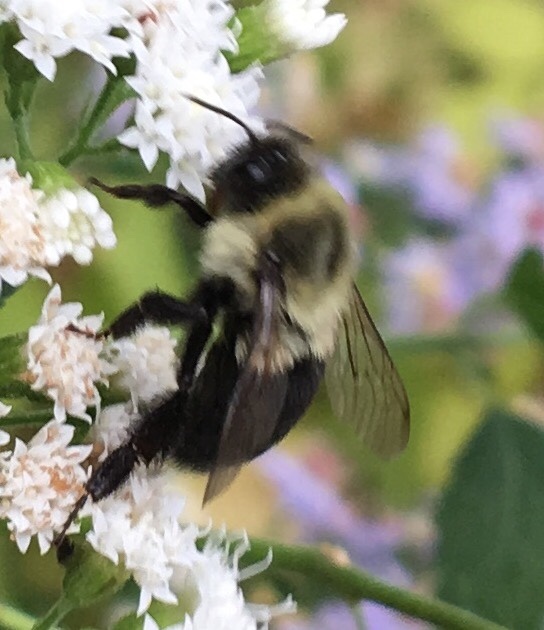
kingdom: Animalia
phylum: Arthropoda
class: Insecta
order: Hymenoptera
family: Apidae
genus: Bombus
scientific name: Bombus impatiens
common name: Common eastern bumble bee
